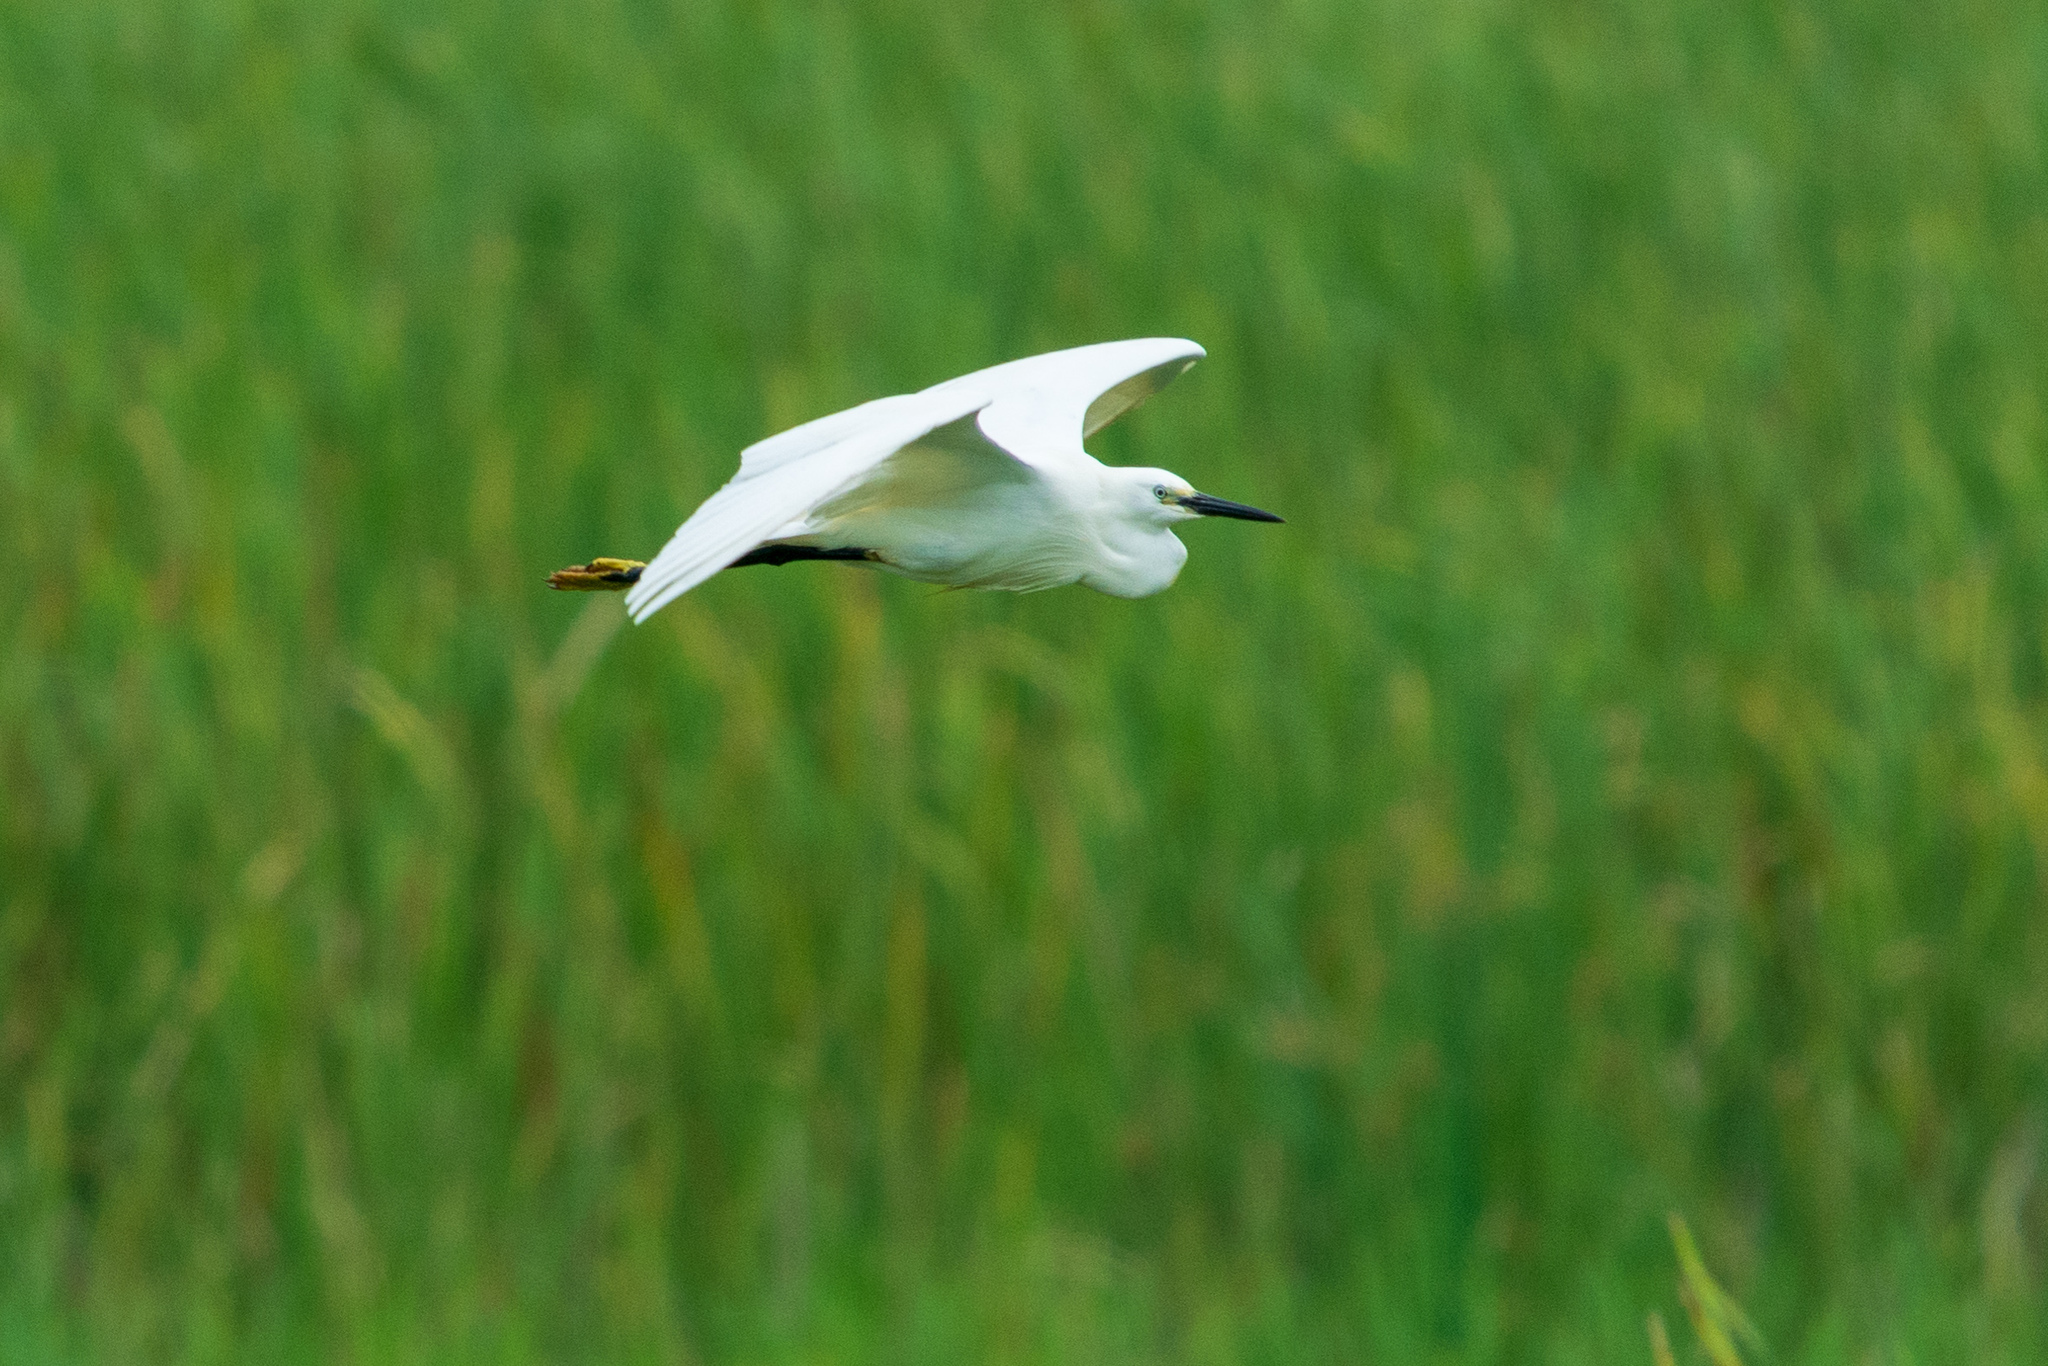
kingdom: Animalia
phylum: Chordata
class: Aves
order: Pelecaniformes
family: Ardeidae
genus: Egretta
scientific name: Egretta garzetta
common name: Little egret
